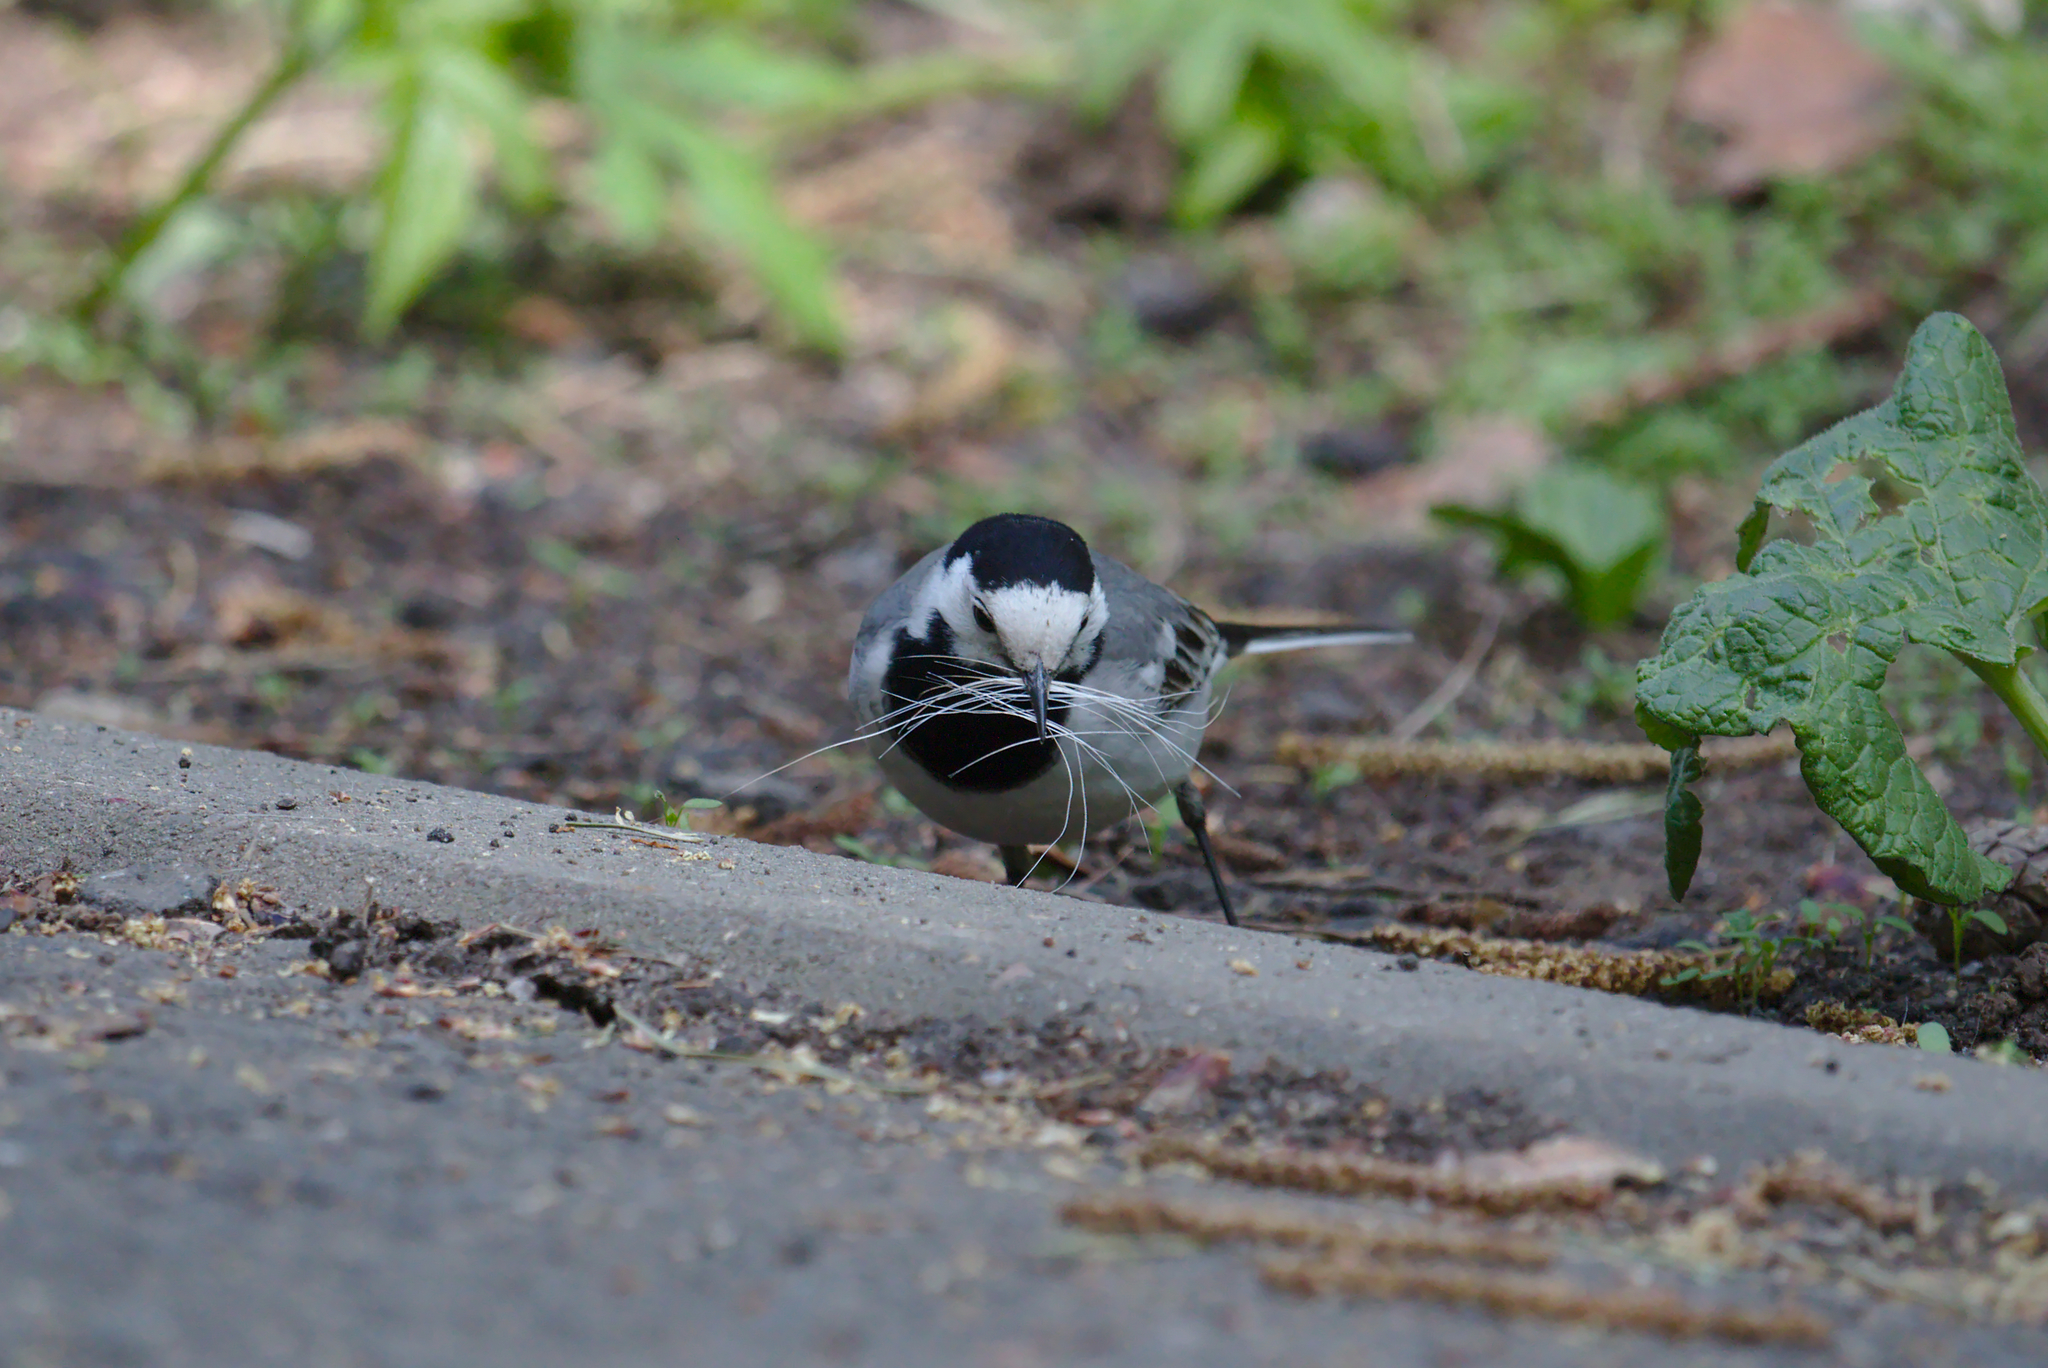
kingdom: Animalia
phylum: Chordata
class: Aves
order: Passeriformes
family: Motacillidae
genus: Motacilla
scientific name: Motacilla alba
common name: White wagtail
